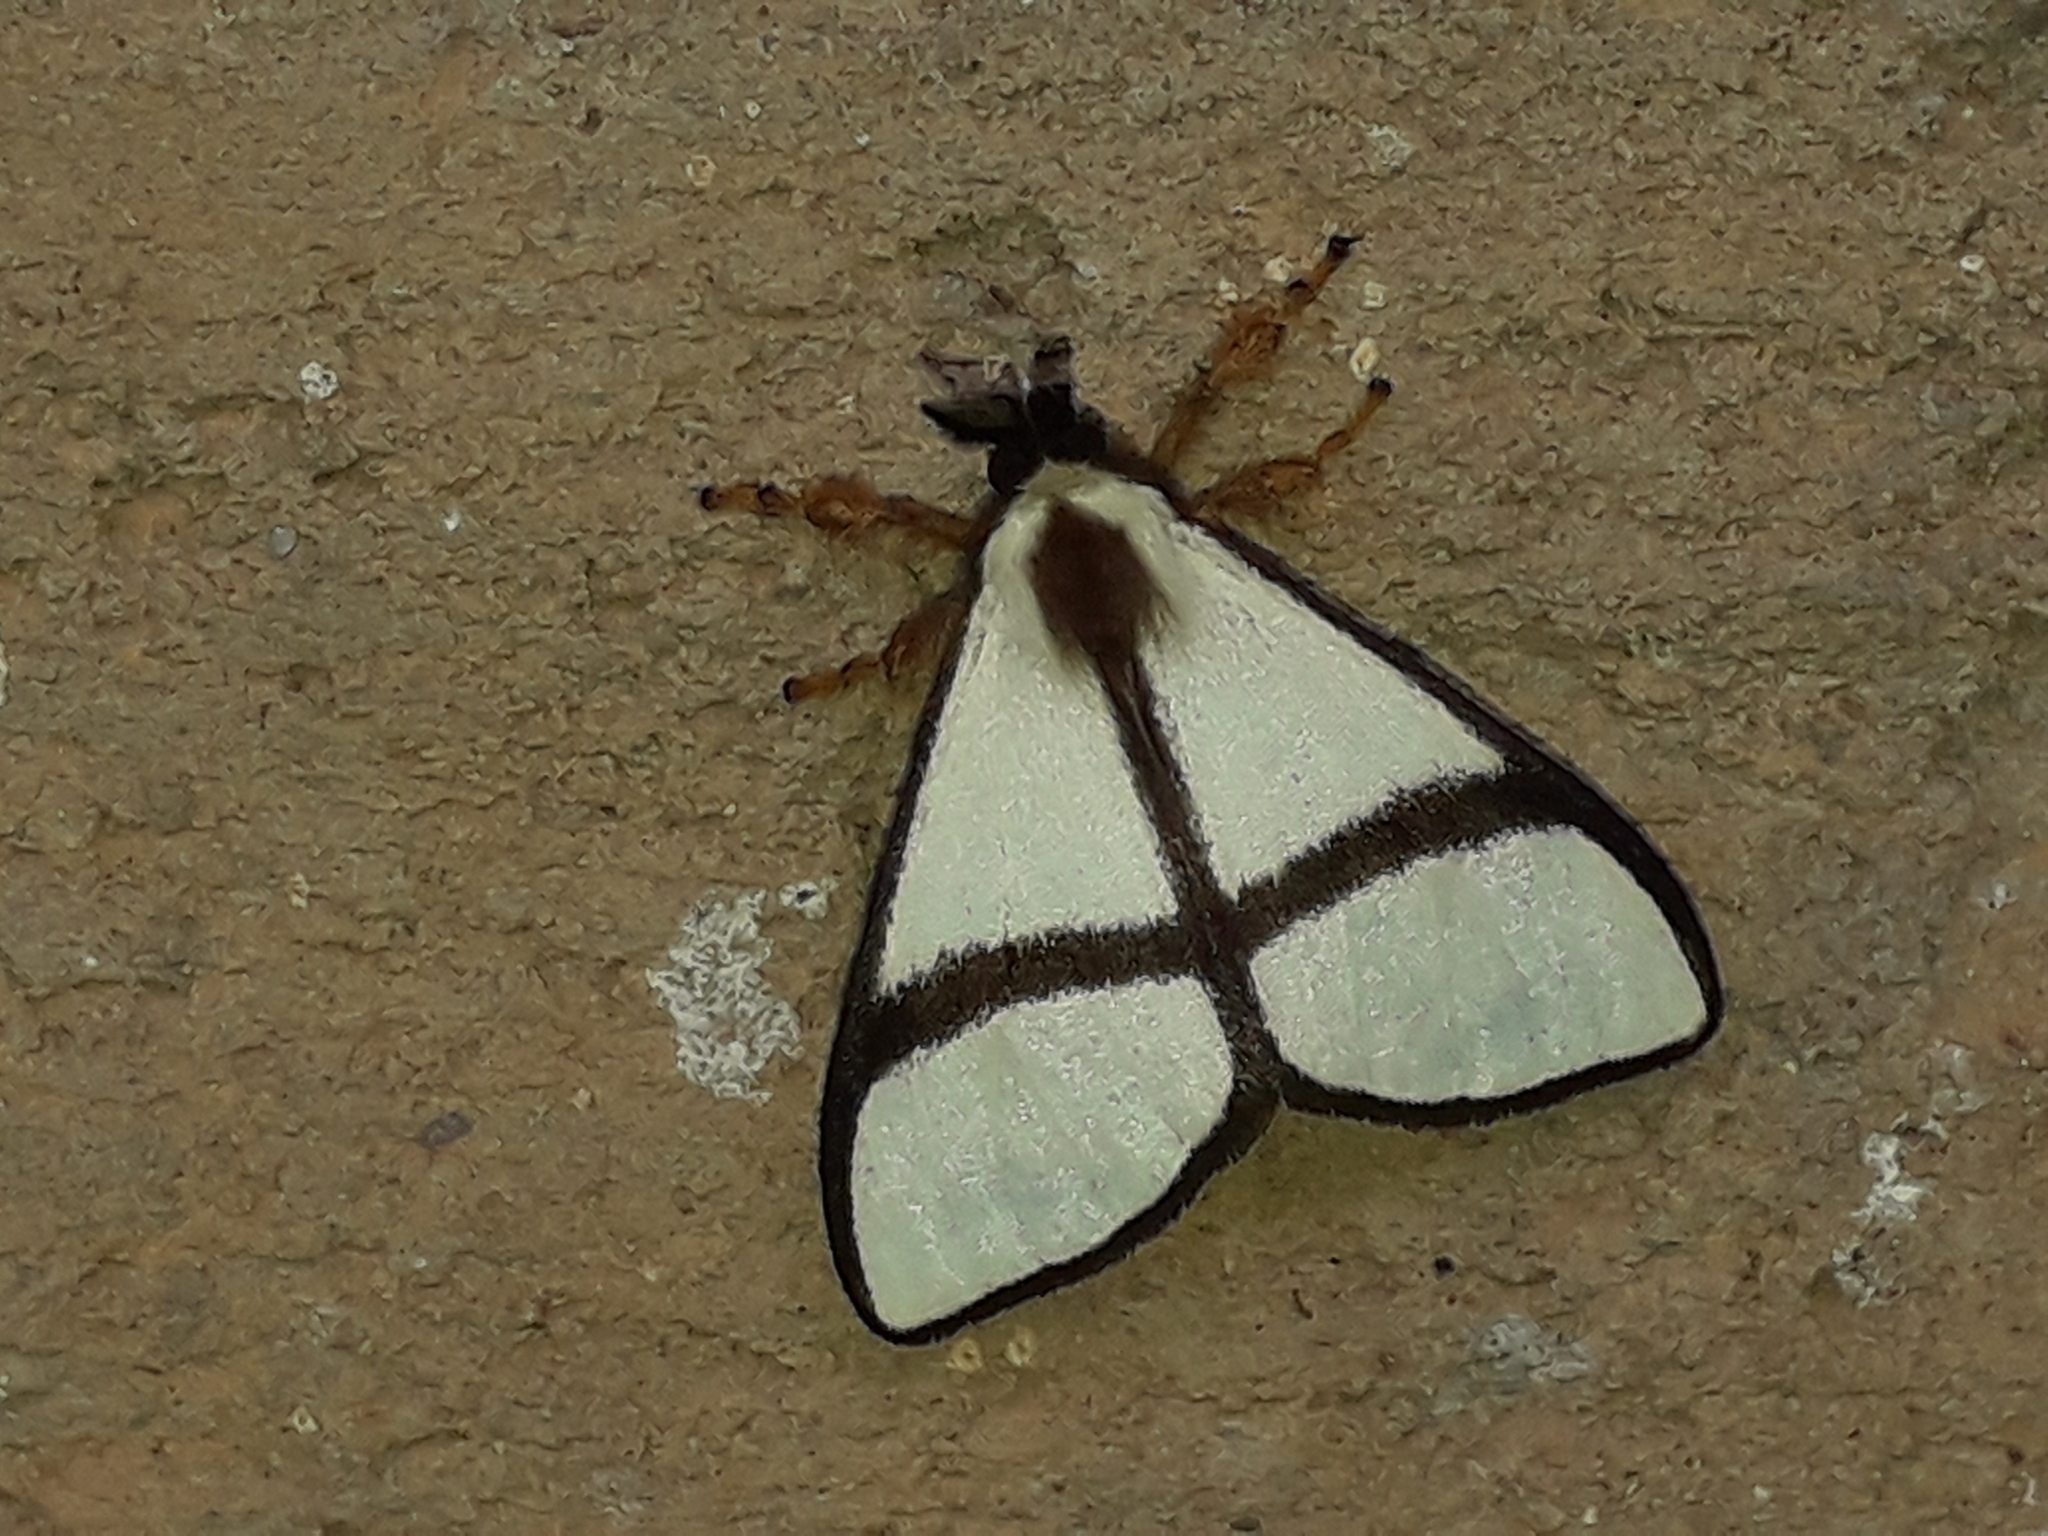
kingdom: Animalia
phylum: Arthropoda
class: Insecta
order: Lepidoptera
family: Notodontidae
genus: Epanaphe
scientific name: Epanaphe carteri
